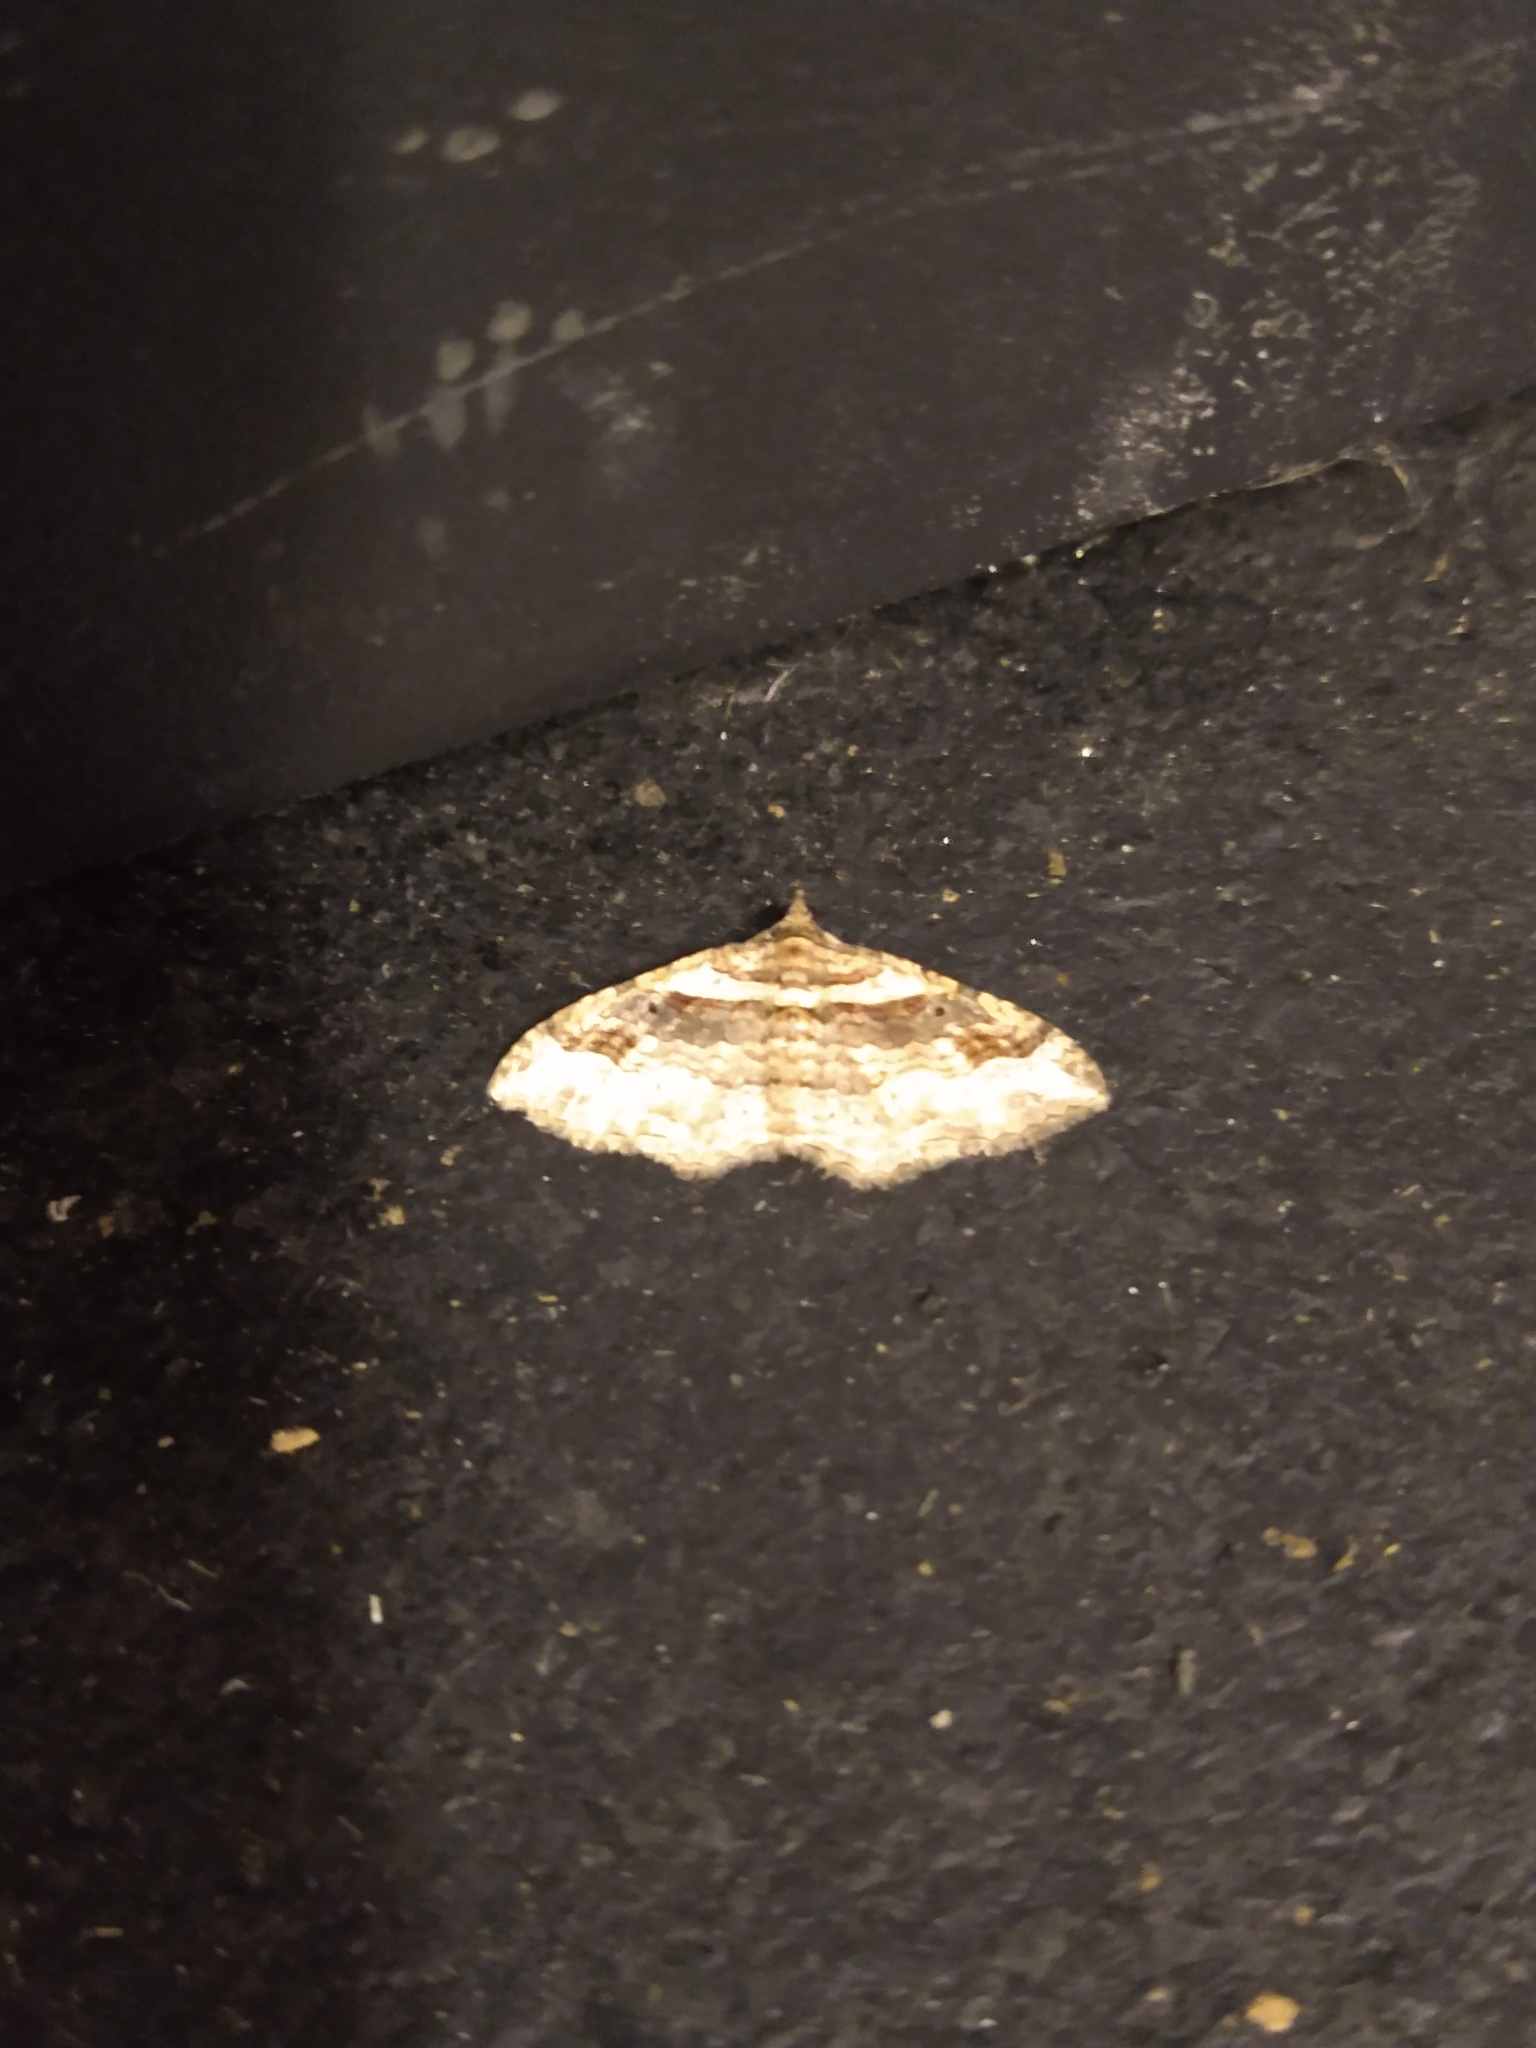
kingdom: Animalia
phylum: Arthropoda
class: Insecta
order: Lepidoptera
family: Geometridae
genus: Costaconvexa
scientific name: Costaconvexa centrostrigaria
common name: Bent-line carpet
